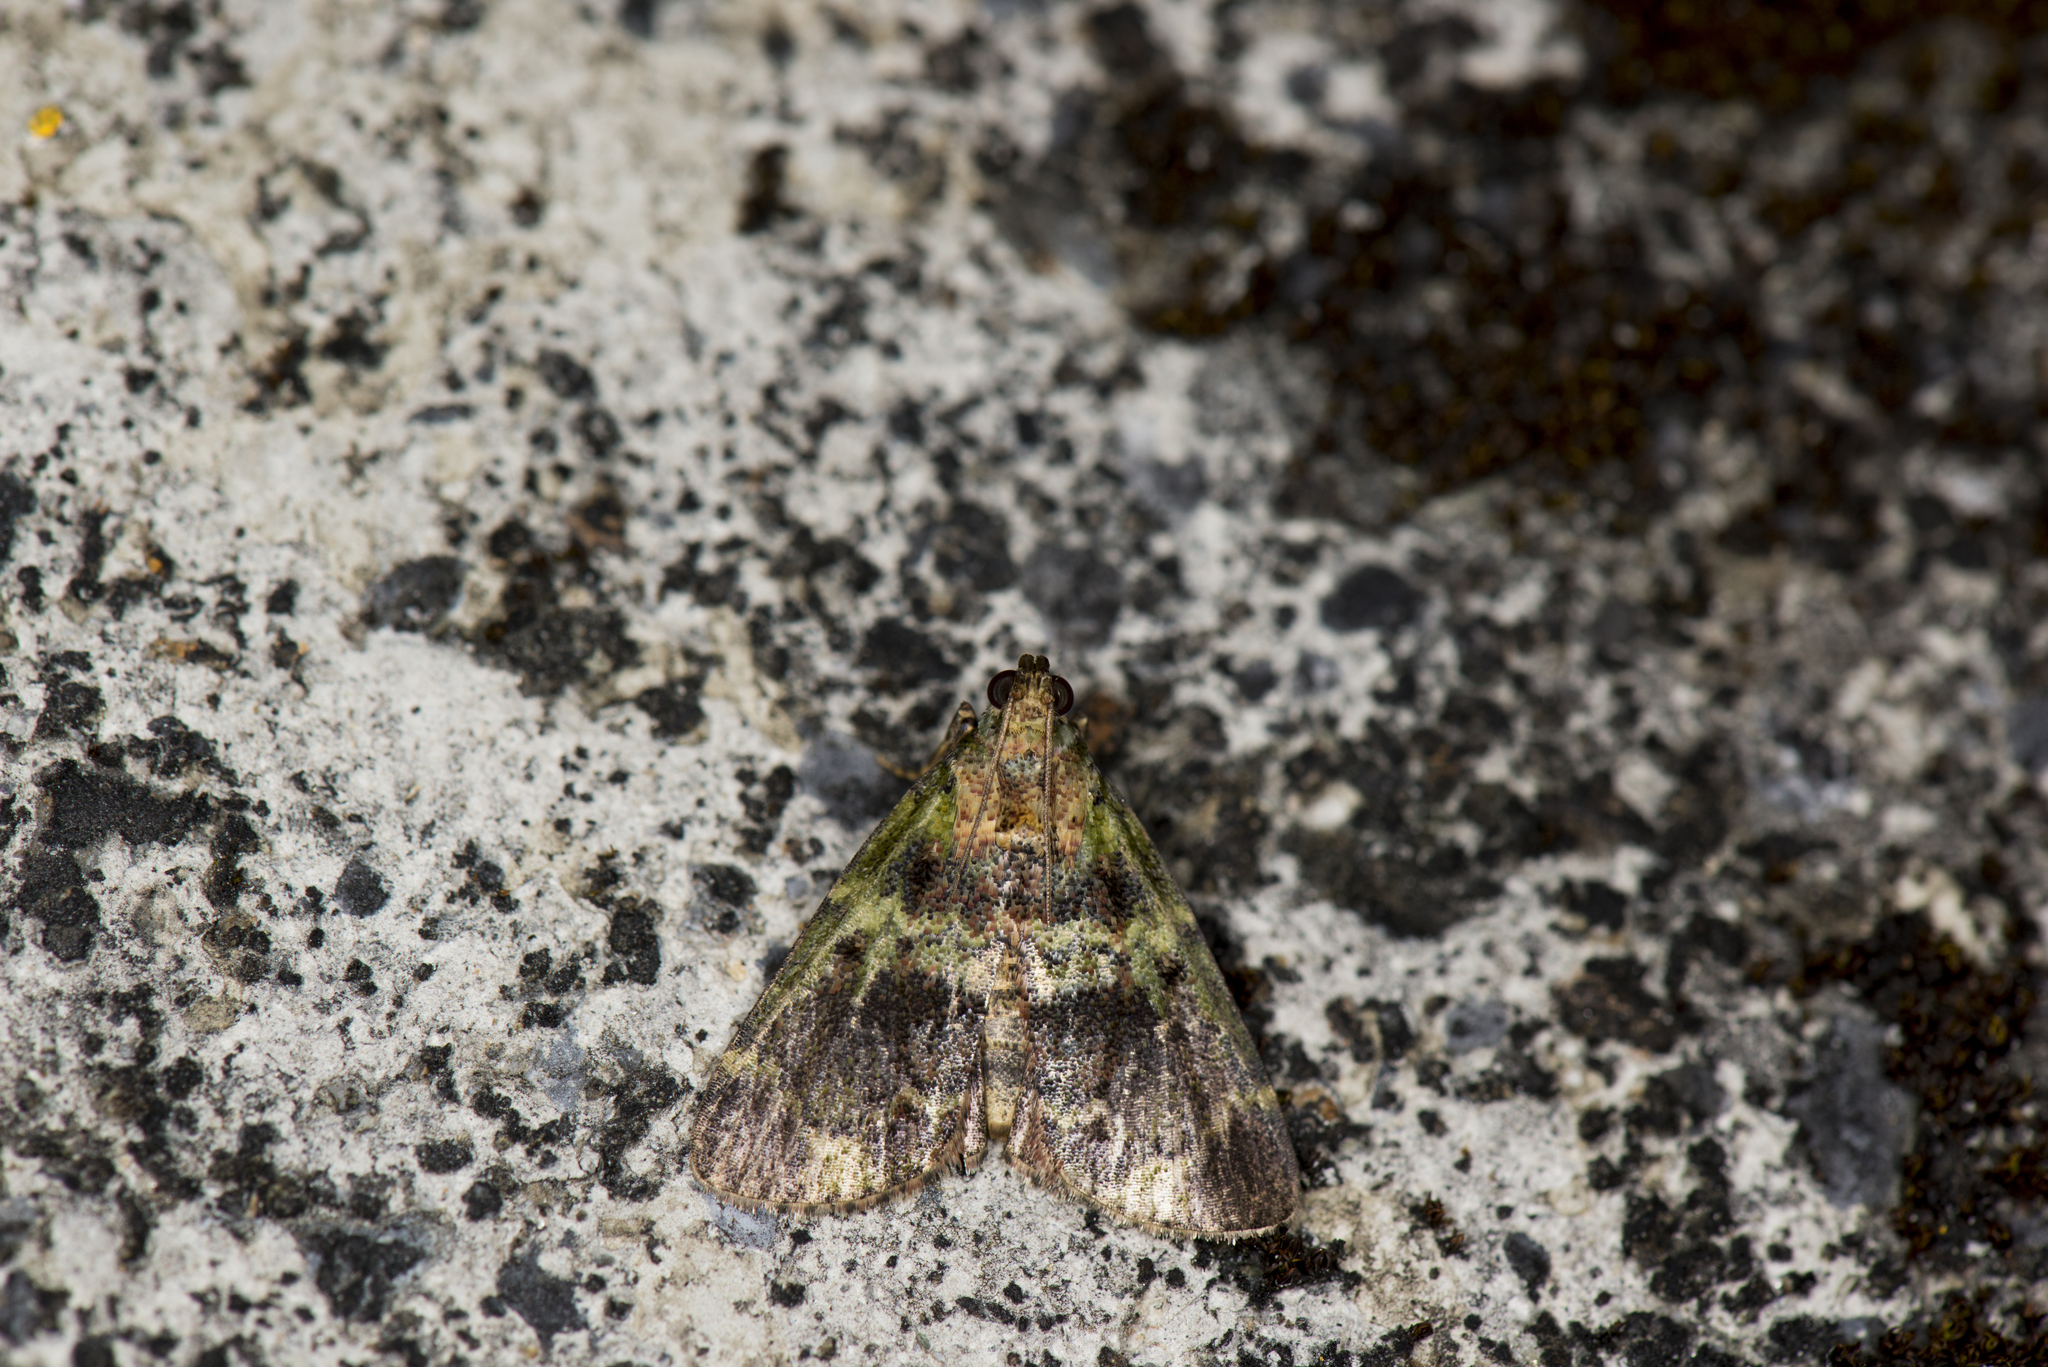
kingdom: Animalia
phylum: Arthropoda
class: Insecta
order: Lepidoptera
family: Pyralidae
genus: Orthaga
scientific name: Orthaga olivacea
